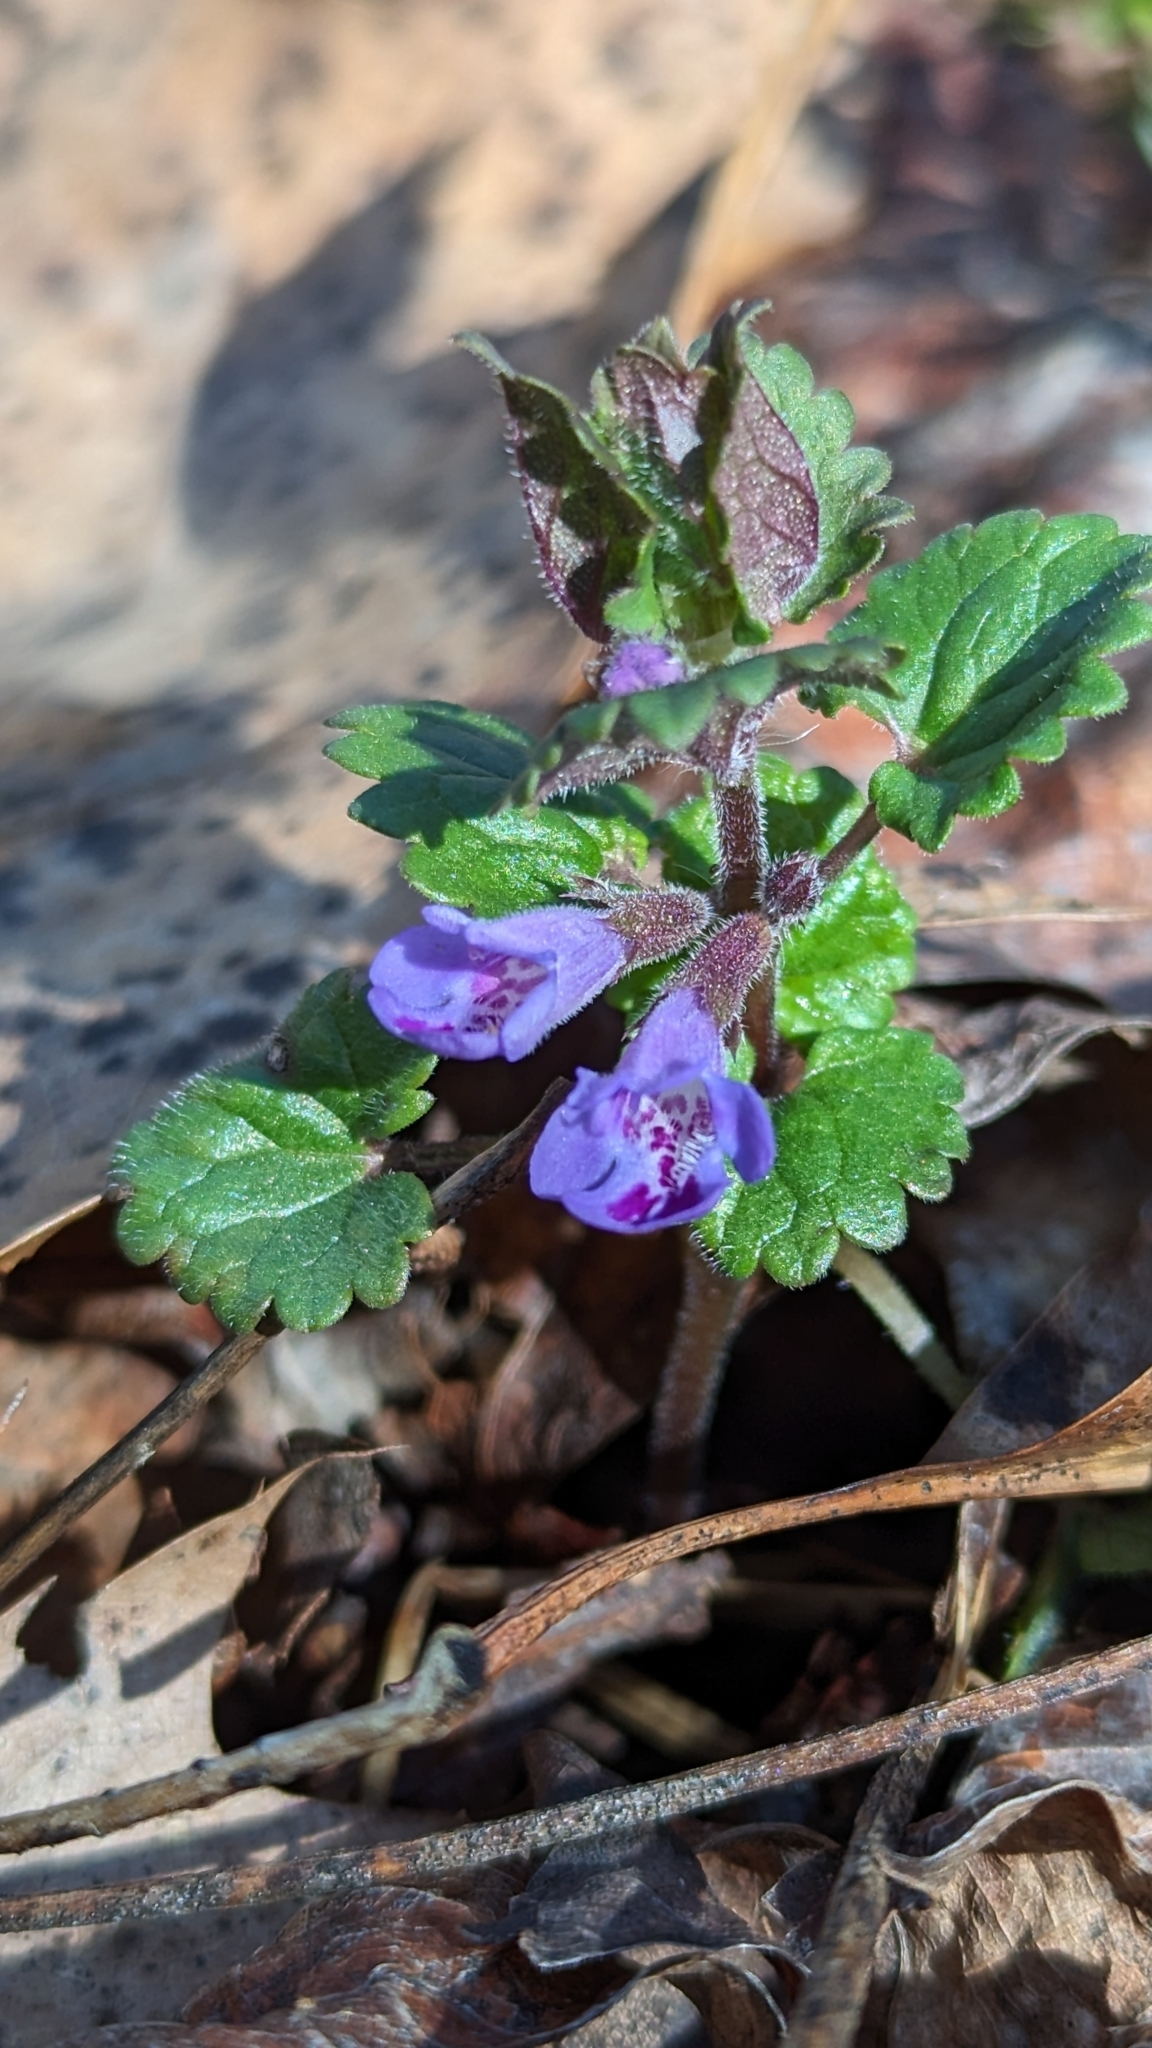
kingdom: Plantae
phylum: Tracheophyta
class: Magnoliopsida
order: Lamiales
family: Lamiaceae
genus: Glechoma
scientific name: Glechoma hederacea
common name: Ground ivy
